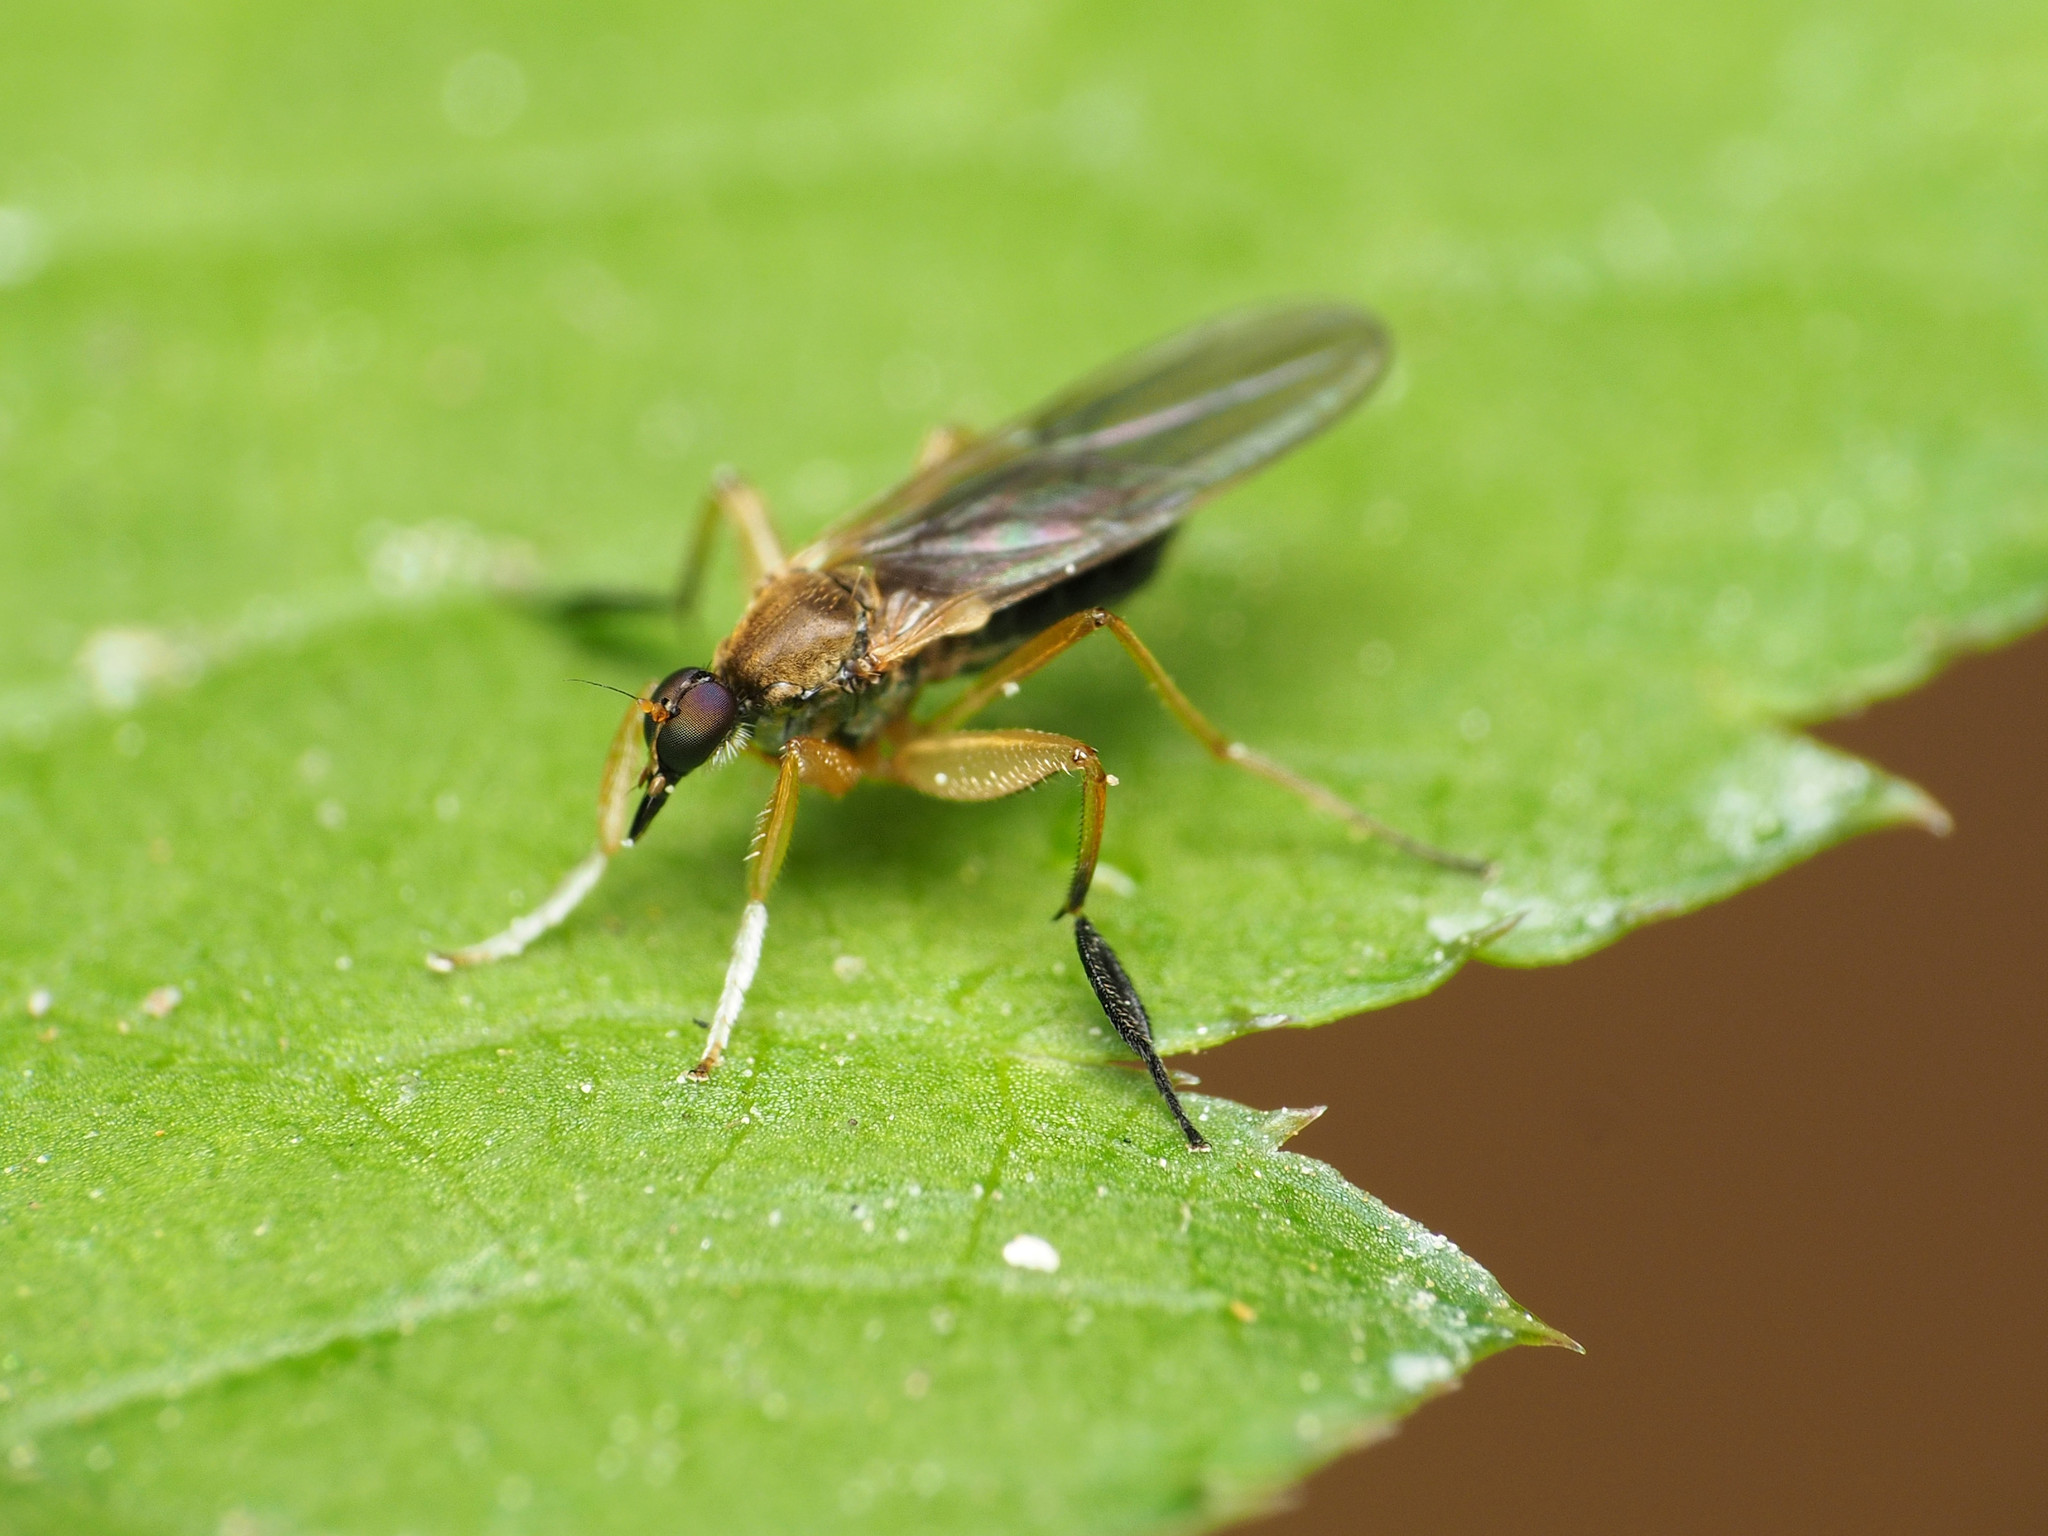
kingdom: Animalia
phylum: Arthropoda
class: Insecta
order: Diptera
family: Hybotidae
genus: Platypalpus
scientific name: Platypalpus discifer
